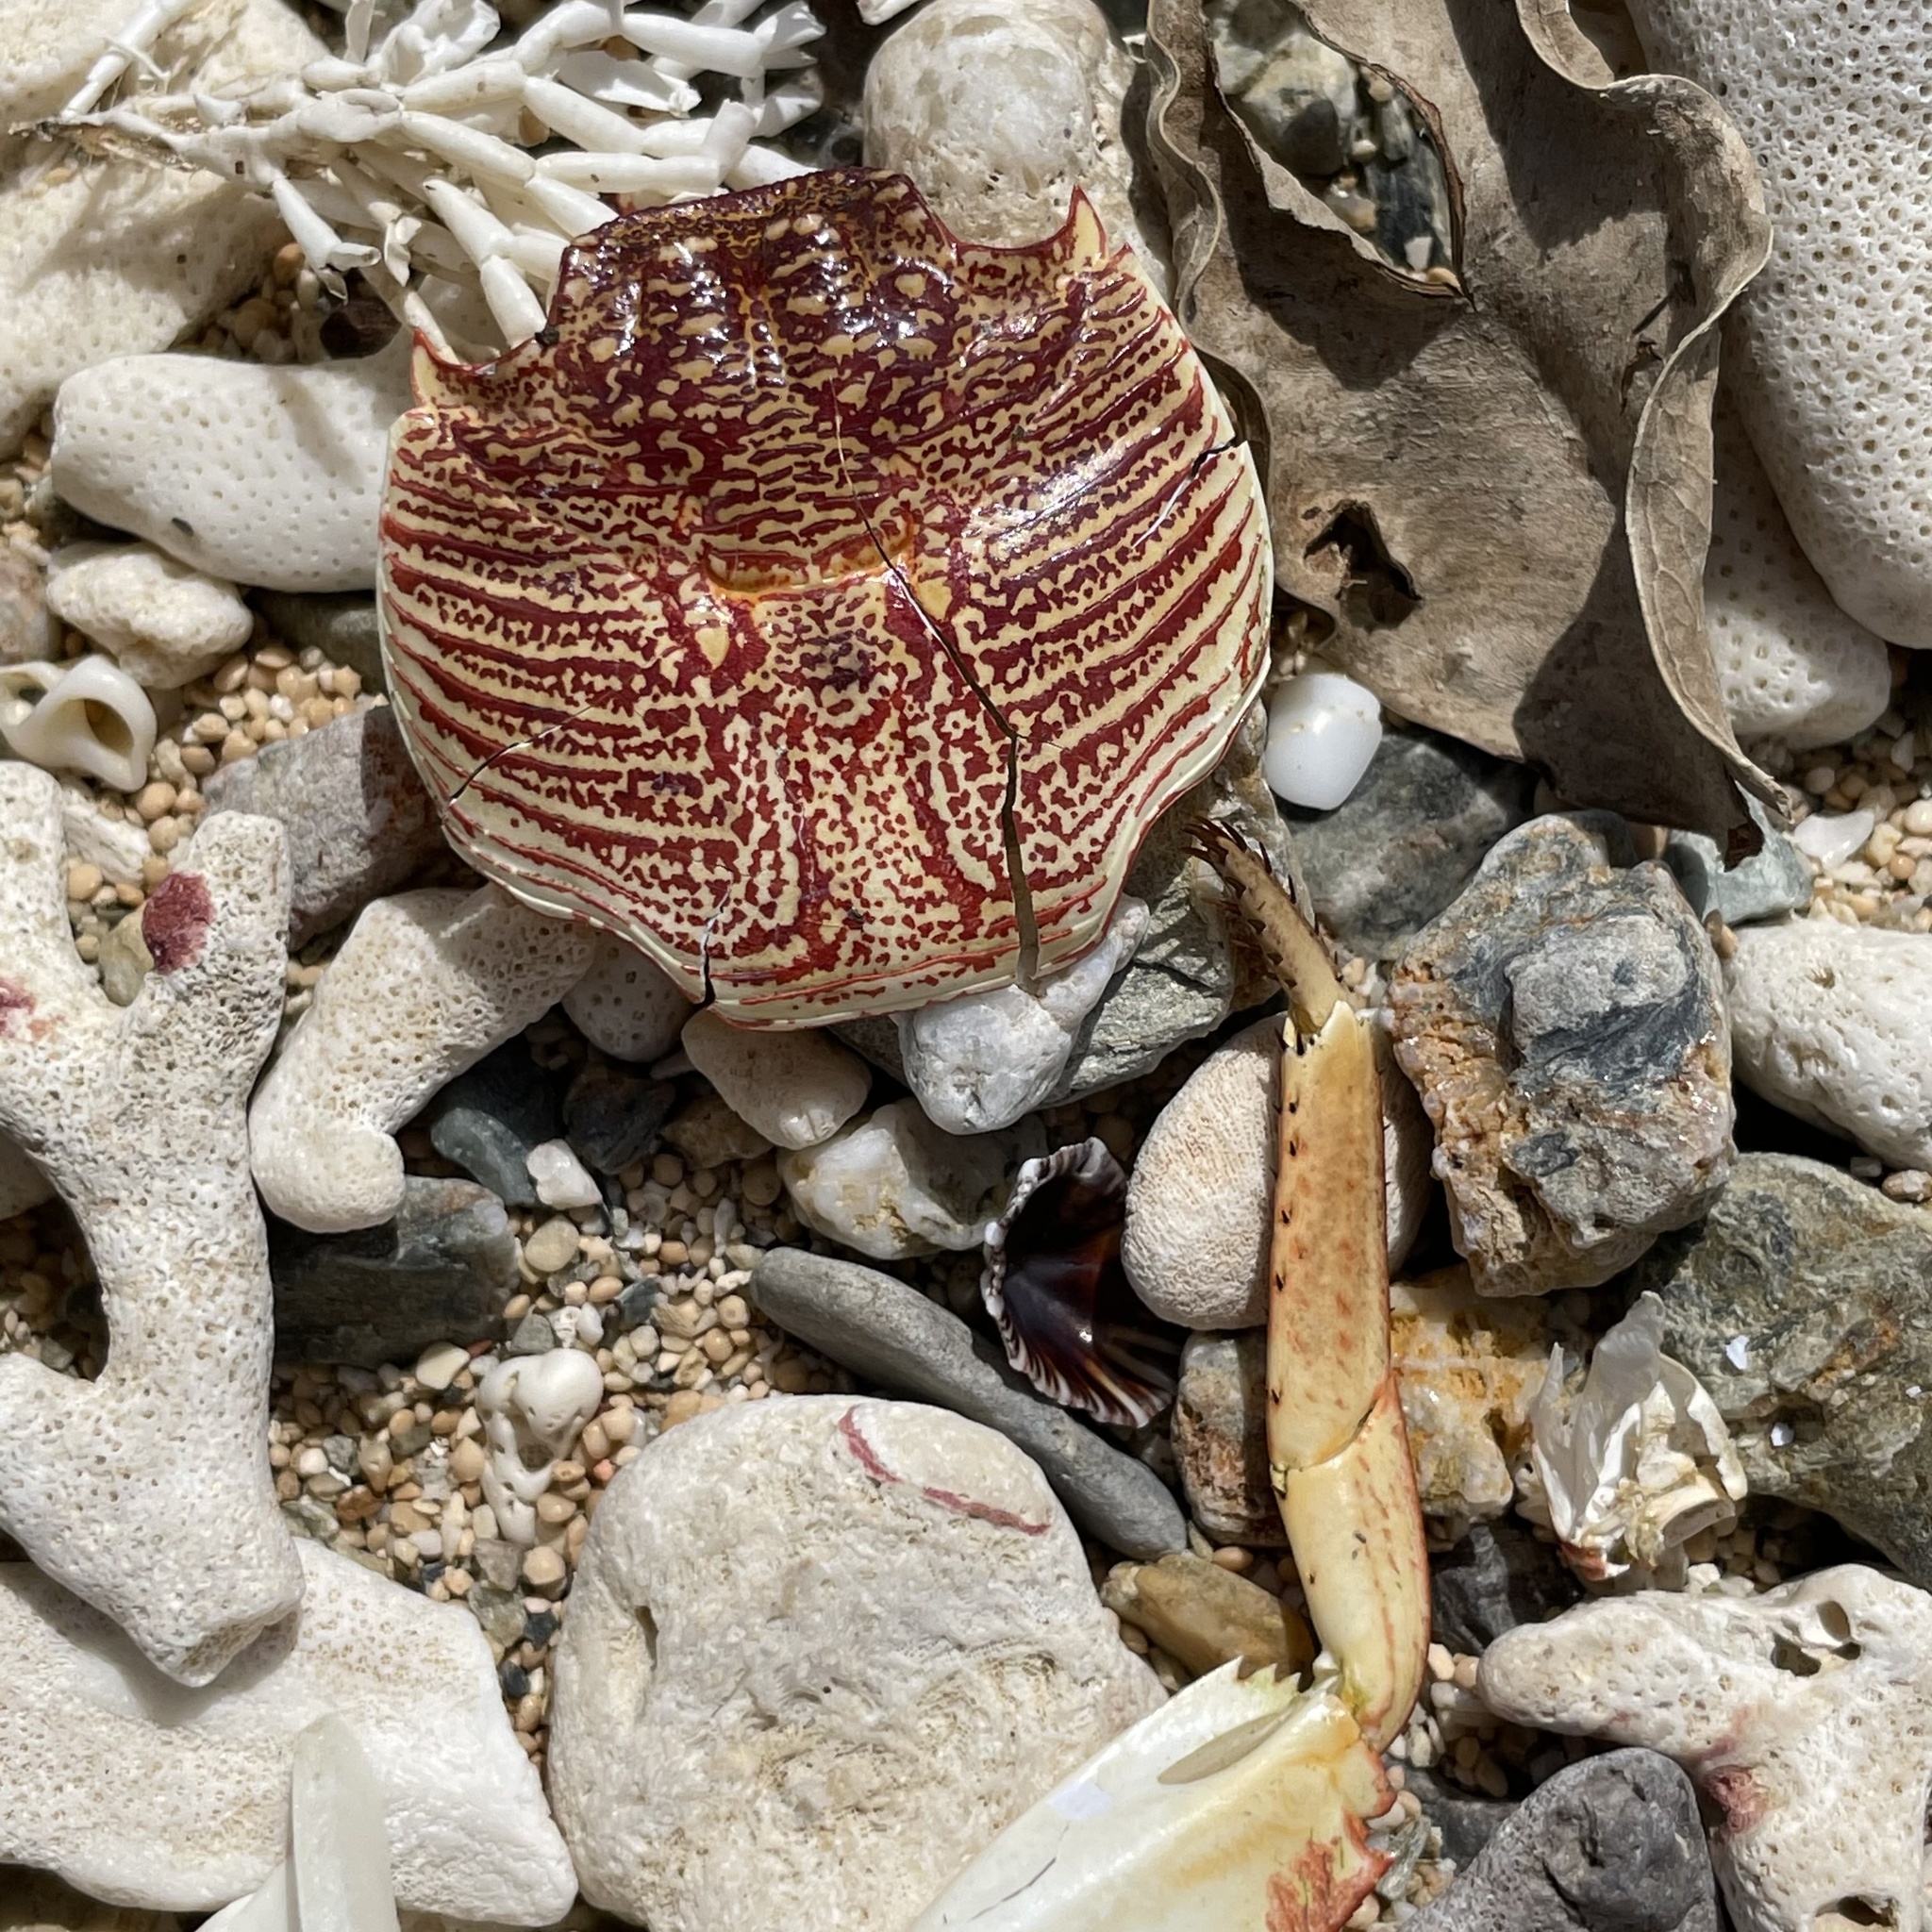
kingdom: Animalia
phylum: Arthropoda
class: Malacostraca
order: Decapoda
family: Grapsidae
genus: Grapsus
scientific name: Grapsus tenuicrustatus
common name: Natal lightfoot crab
